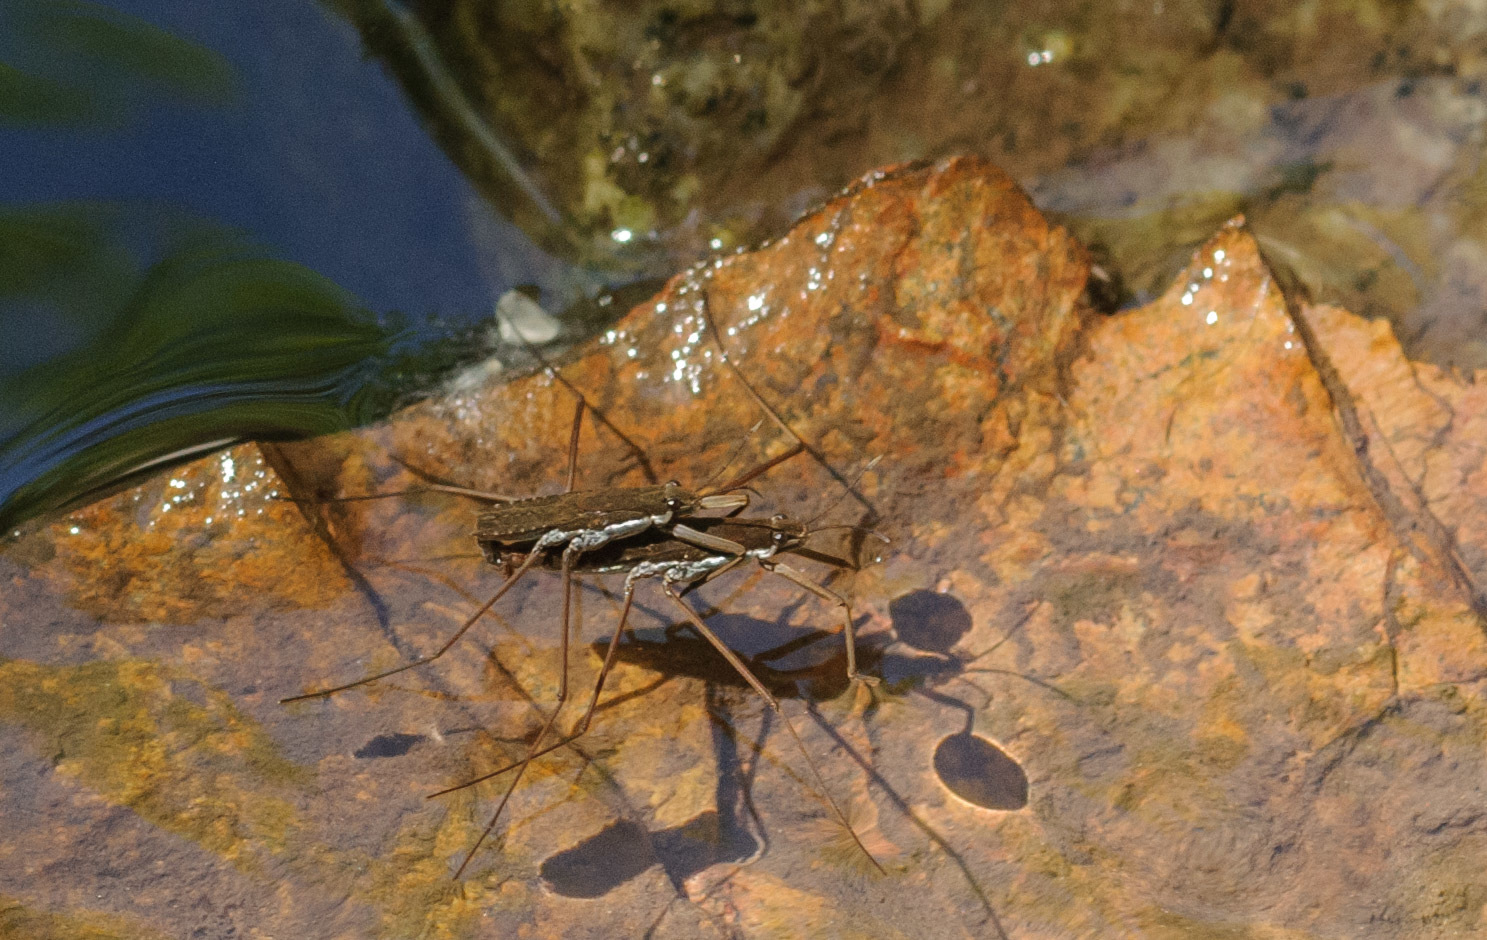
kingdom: Animalia
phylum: Arthropoda
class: Insecta
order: Hemiptera
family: Gerridae
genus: Aquarius
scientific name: Aquarius remigis
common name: Common water strider
